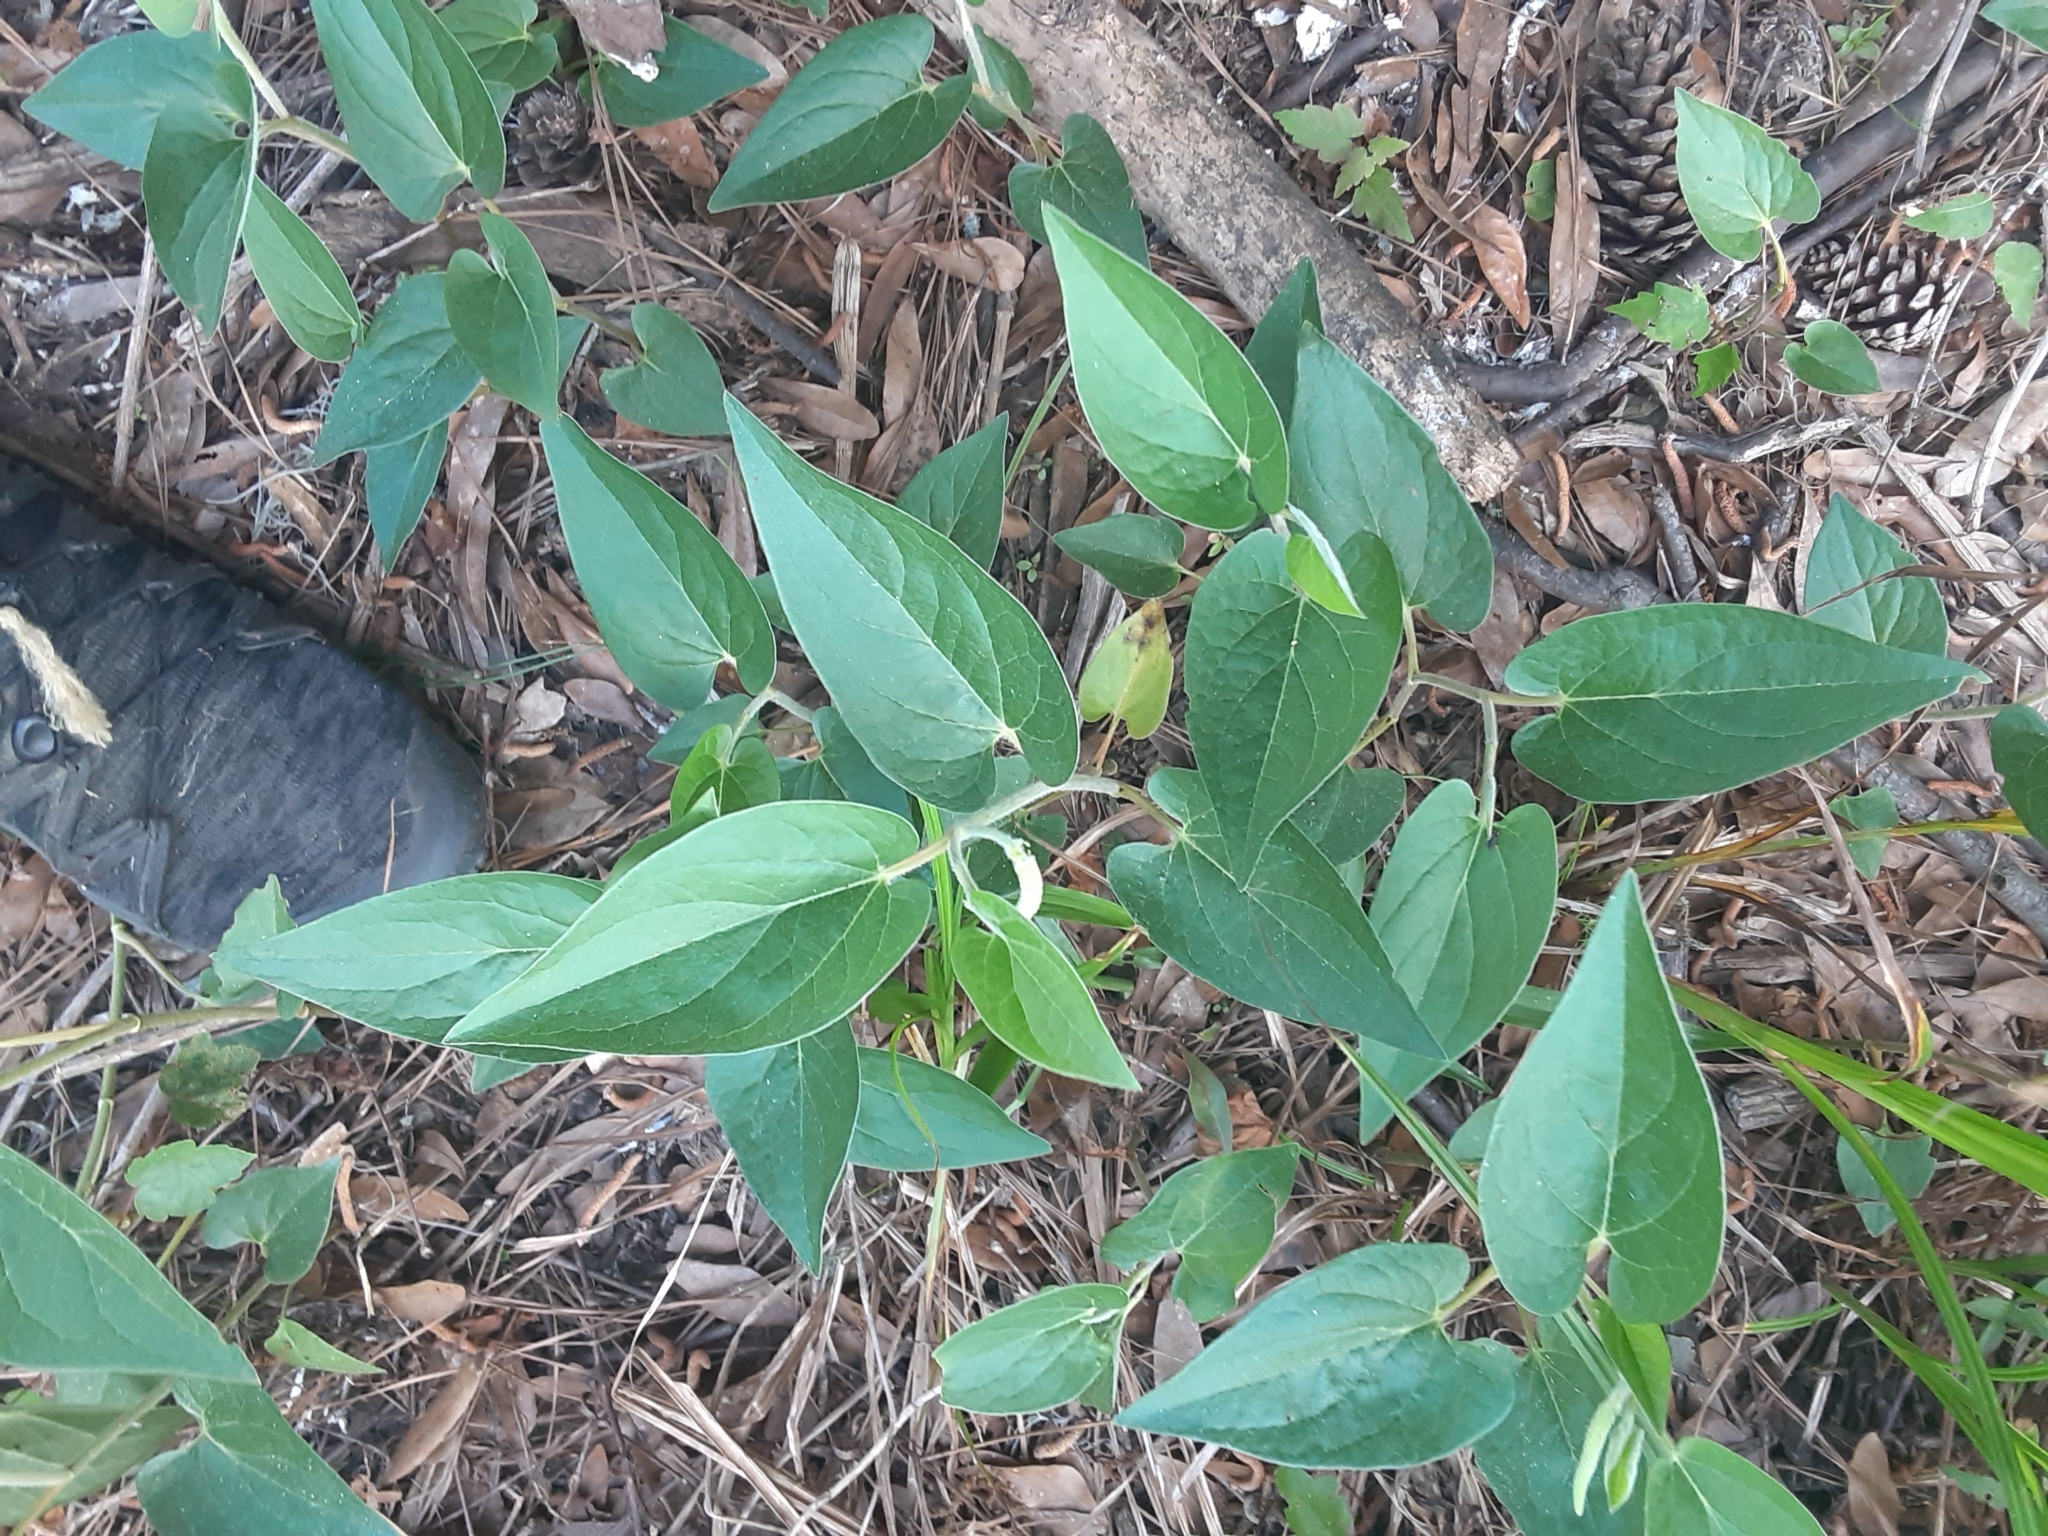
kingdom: Plantae
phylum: Tracheophyta
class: Magnoliopsida
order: Piperales
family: Saururaceae
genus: Saururus
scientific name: Saururus cernuus
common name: Lizard's-tail
